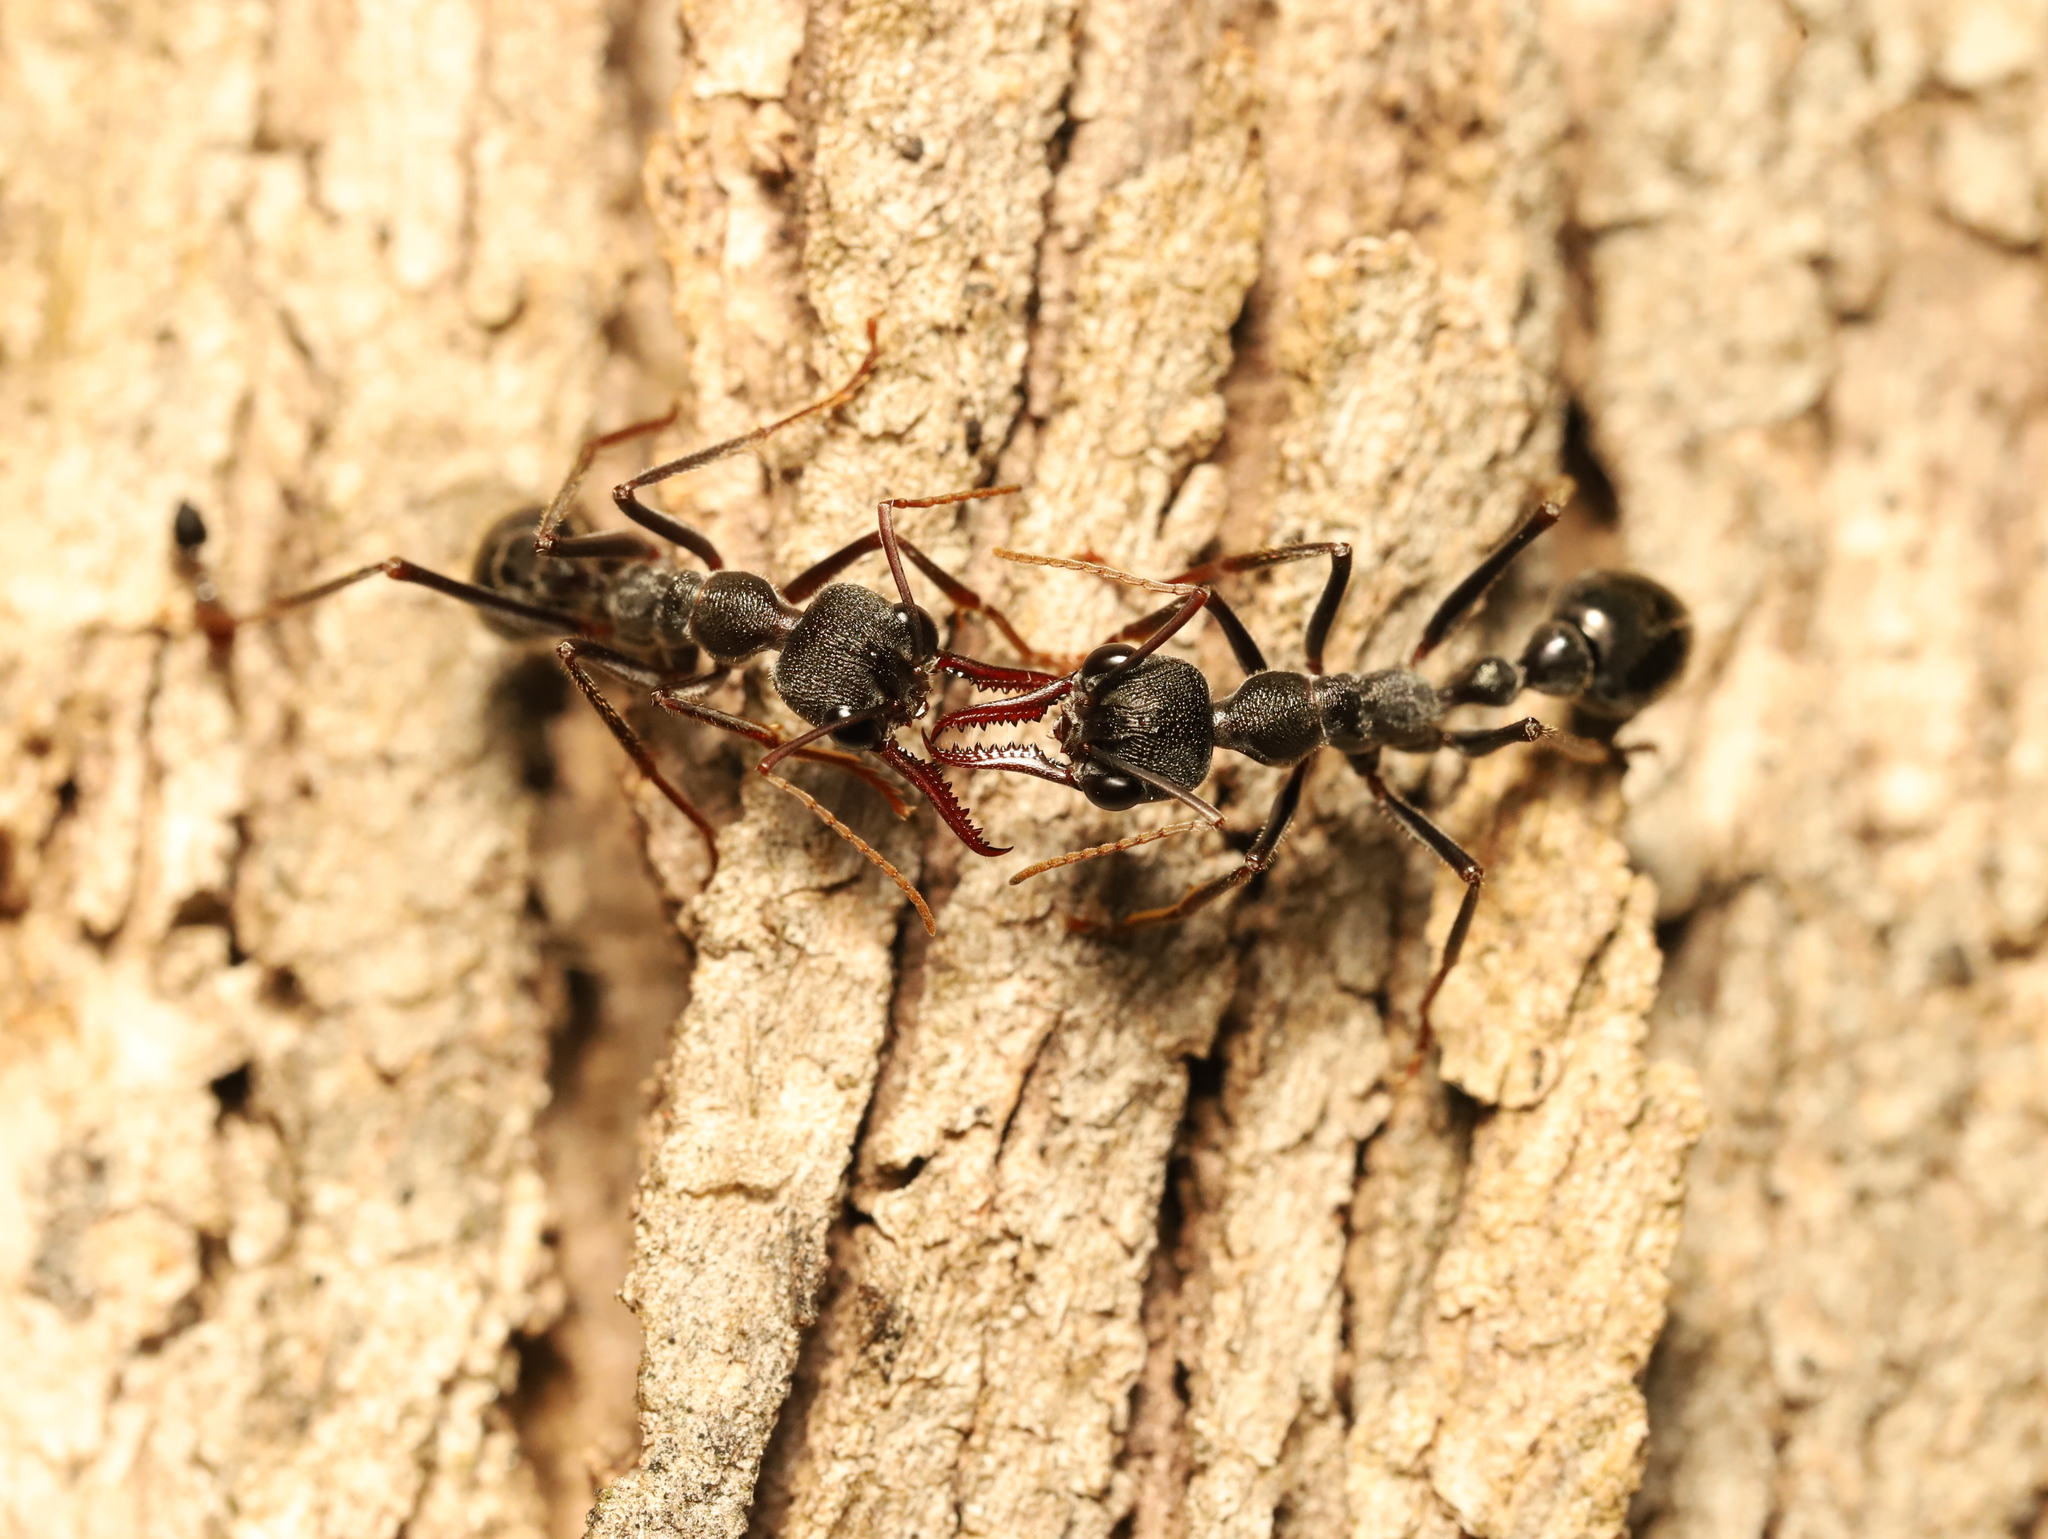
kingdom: Animalia
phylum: Arthropoda
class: Insecta
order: Hymenoptera
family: Formicidae
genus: Myrmecia
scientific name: Myrmecia pyriformis
